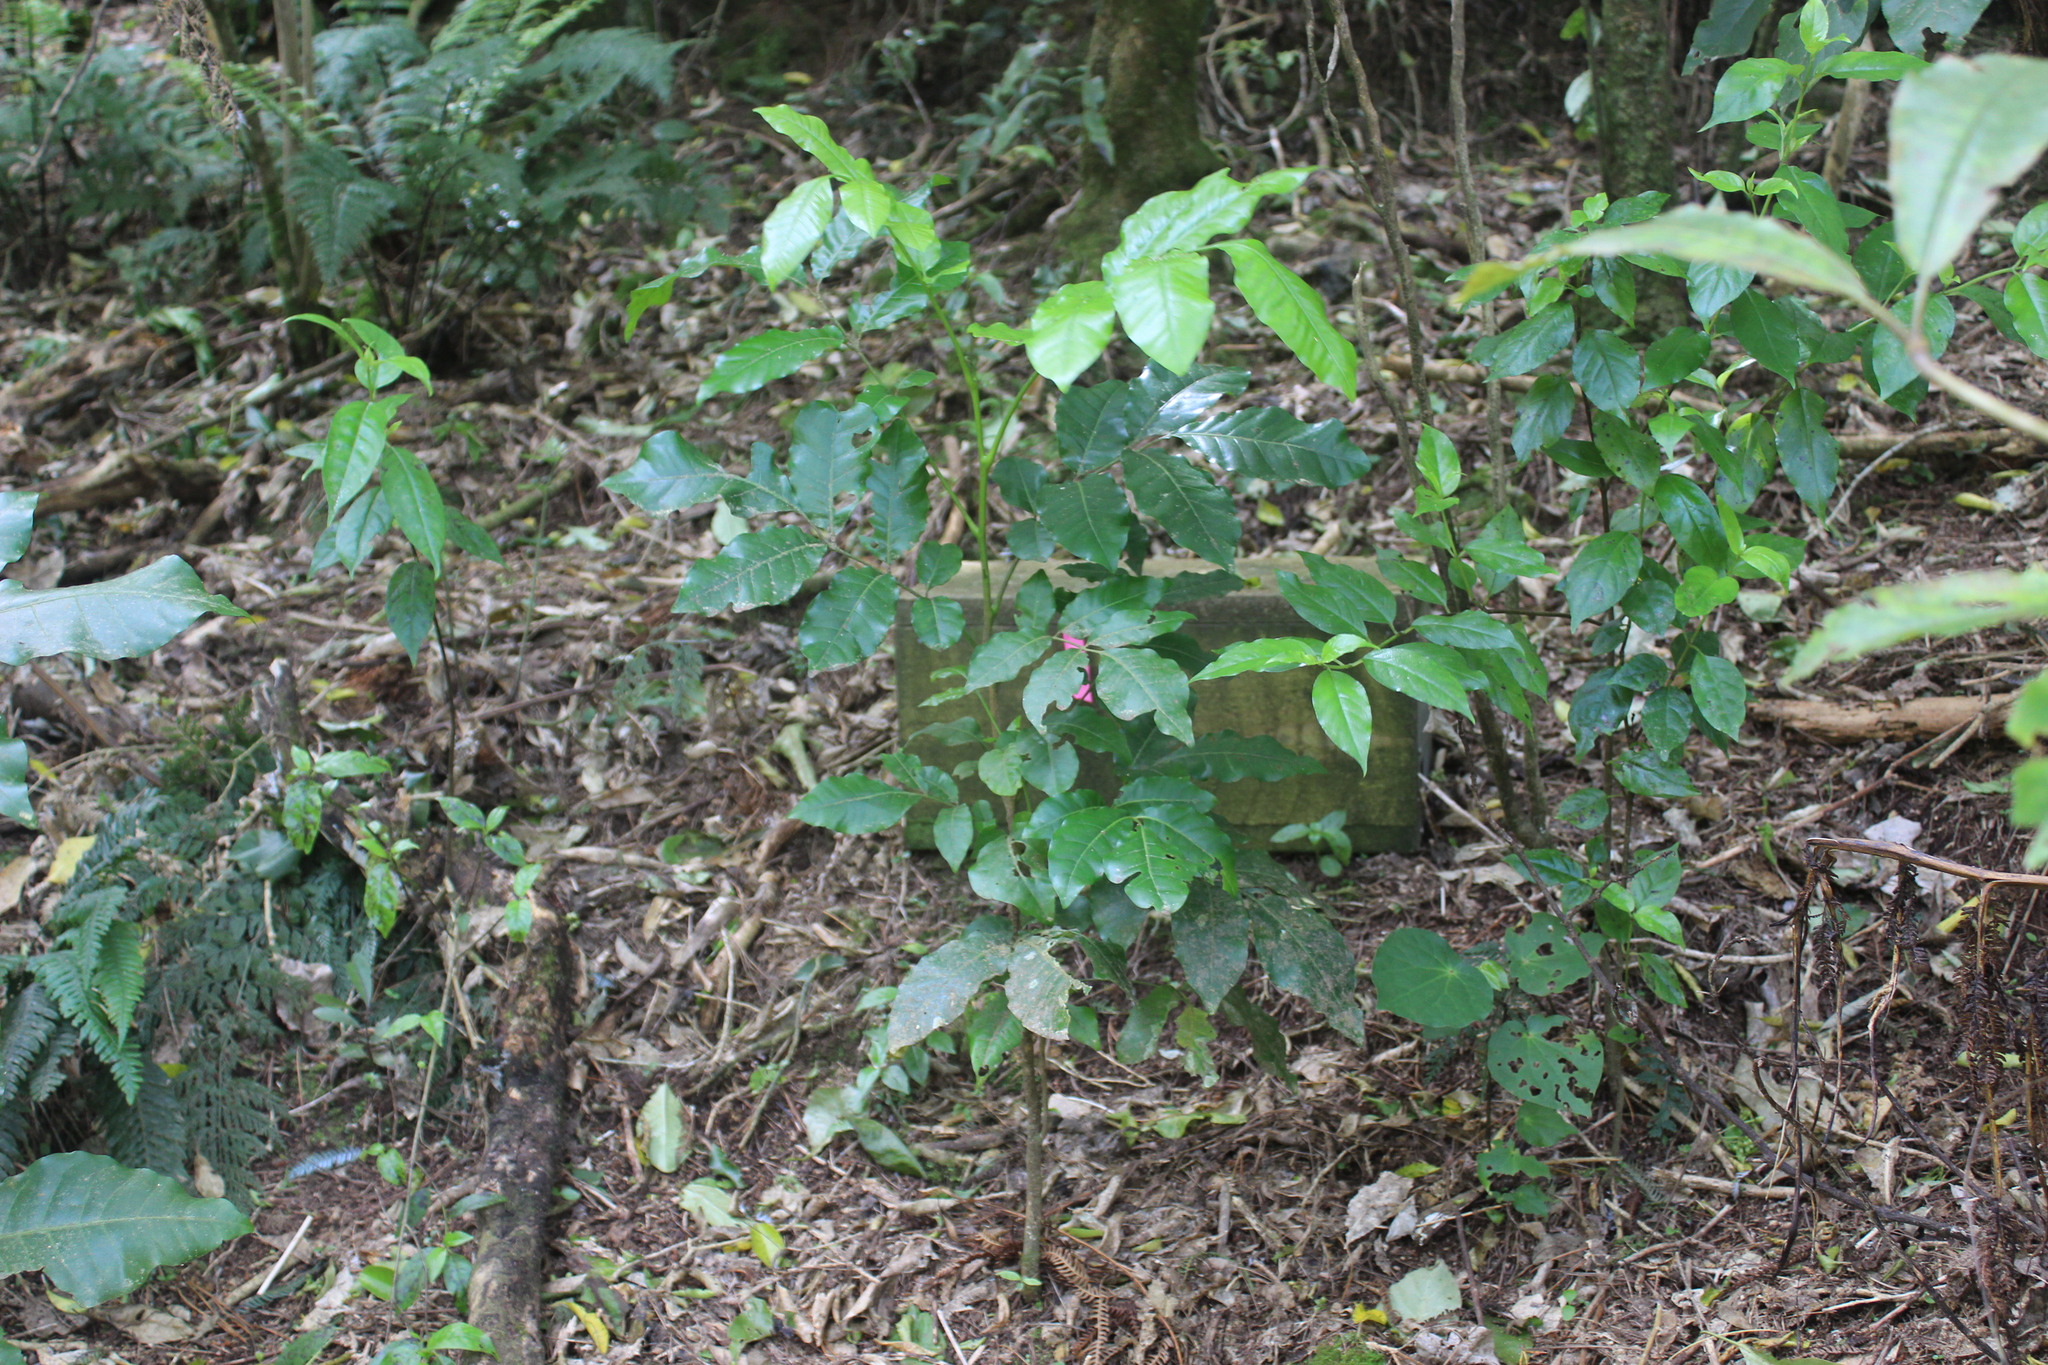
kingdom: Plantae
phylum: Tracheophyta
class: Magnoliopsida
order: Sapindales
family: Meliaceae
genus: Didymocheton
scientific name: Didymocheton spectabilis
